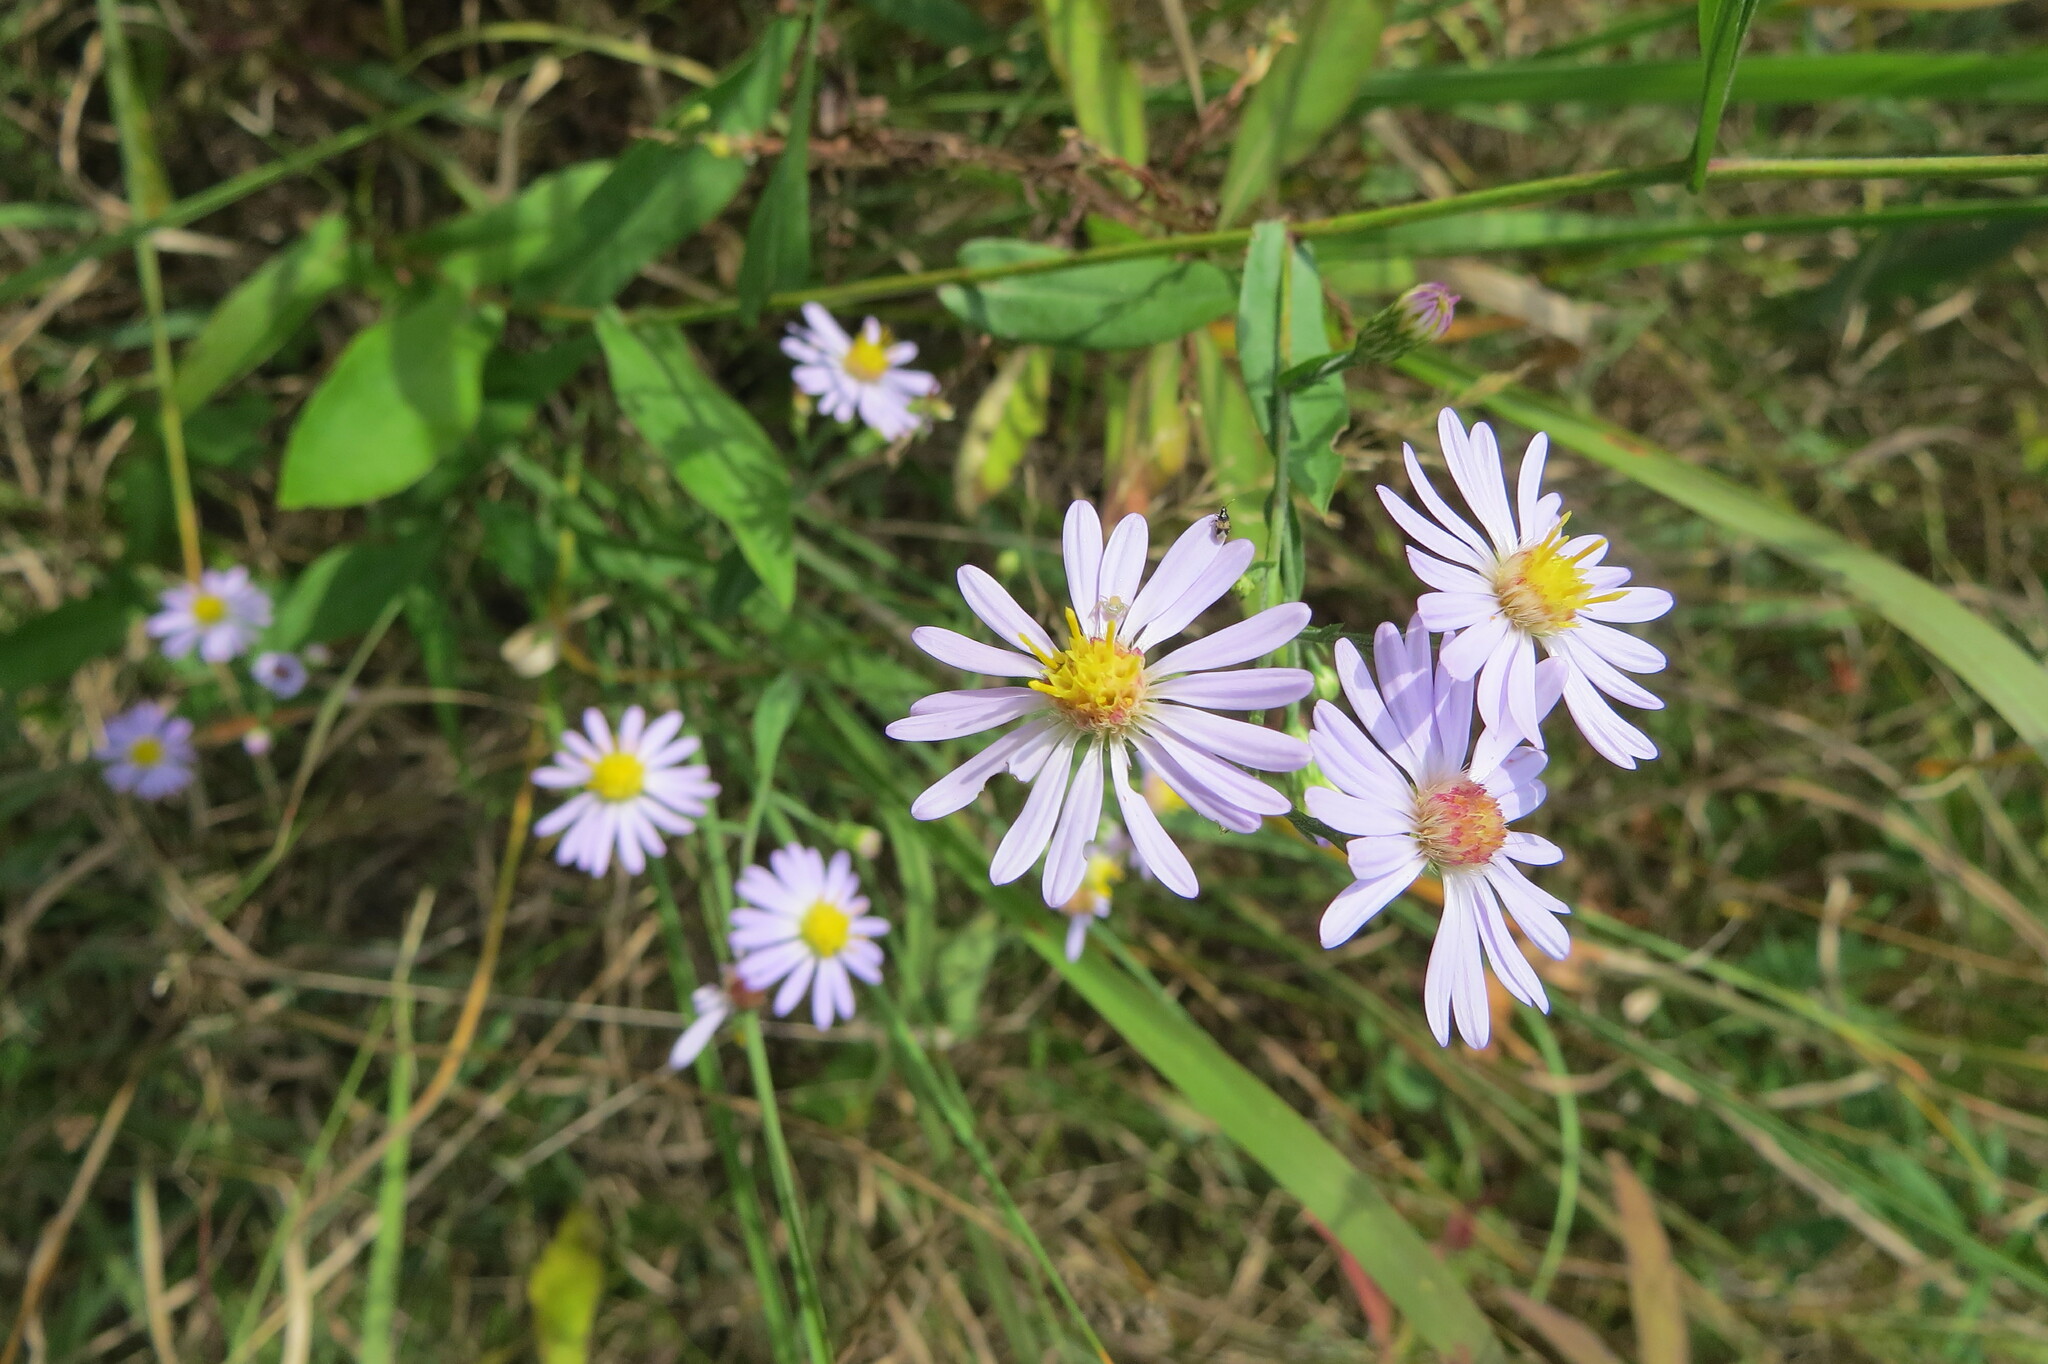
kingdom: Plantae
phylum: Tracheophyta
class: Magnoliopsida
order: Asterales
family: Asteraceae
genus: Symphyotrichum
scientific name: Symphyotrichum laeve
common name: Glaucous aster
